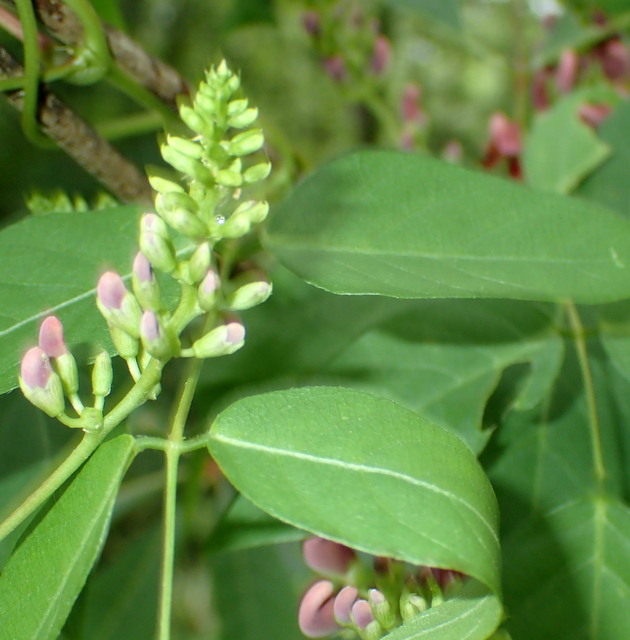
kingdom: Plantae
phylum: Tracheophyta
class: Magnoliopsida
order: Fabales
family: Fabaceae
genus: Apios
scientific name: Apios americana
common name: American potato-bean
